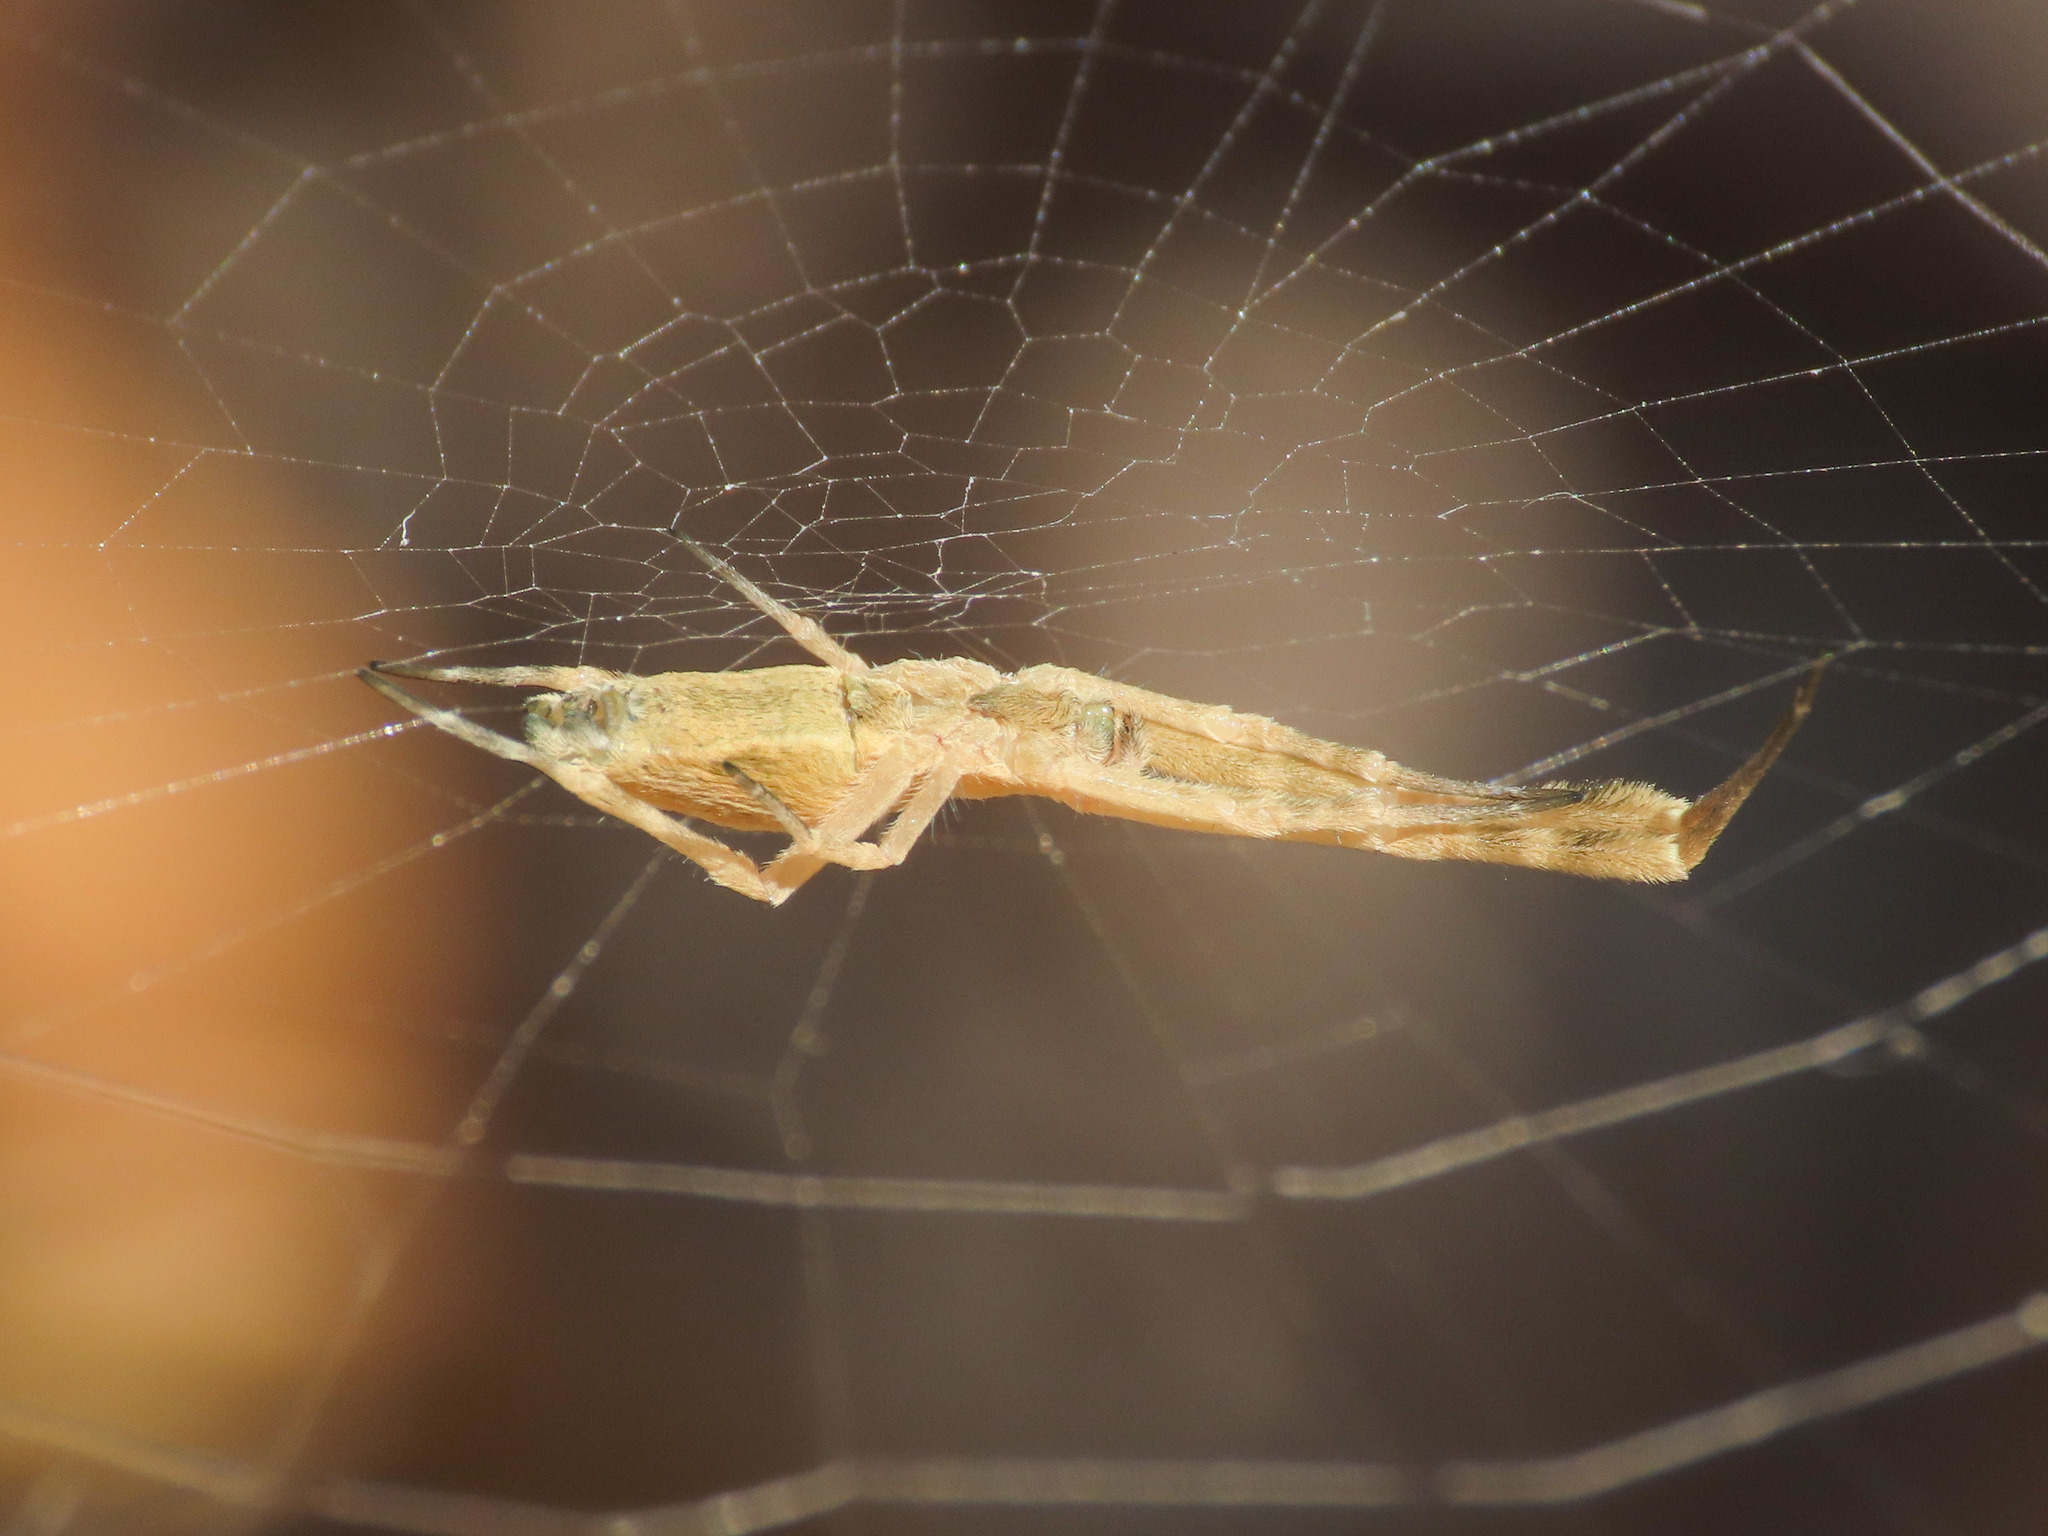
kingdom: Animalia
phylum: Arthropoda
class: Arachnida
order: Araneae
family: Uloboridae
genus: Uloborus
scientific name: Uloborus walckenaerius
